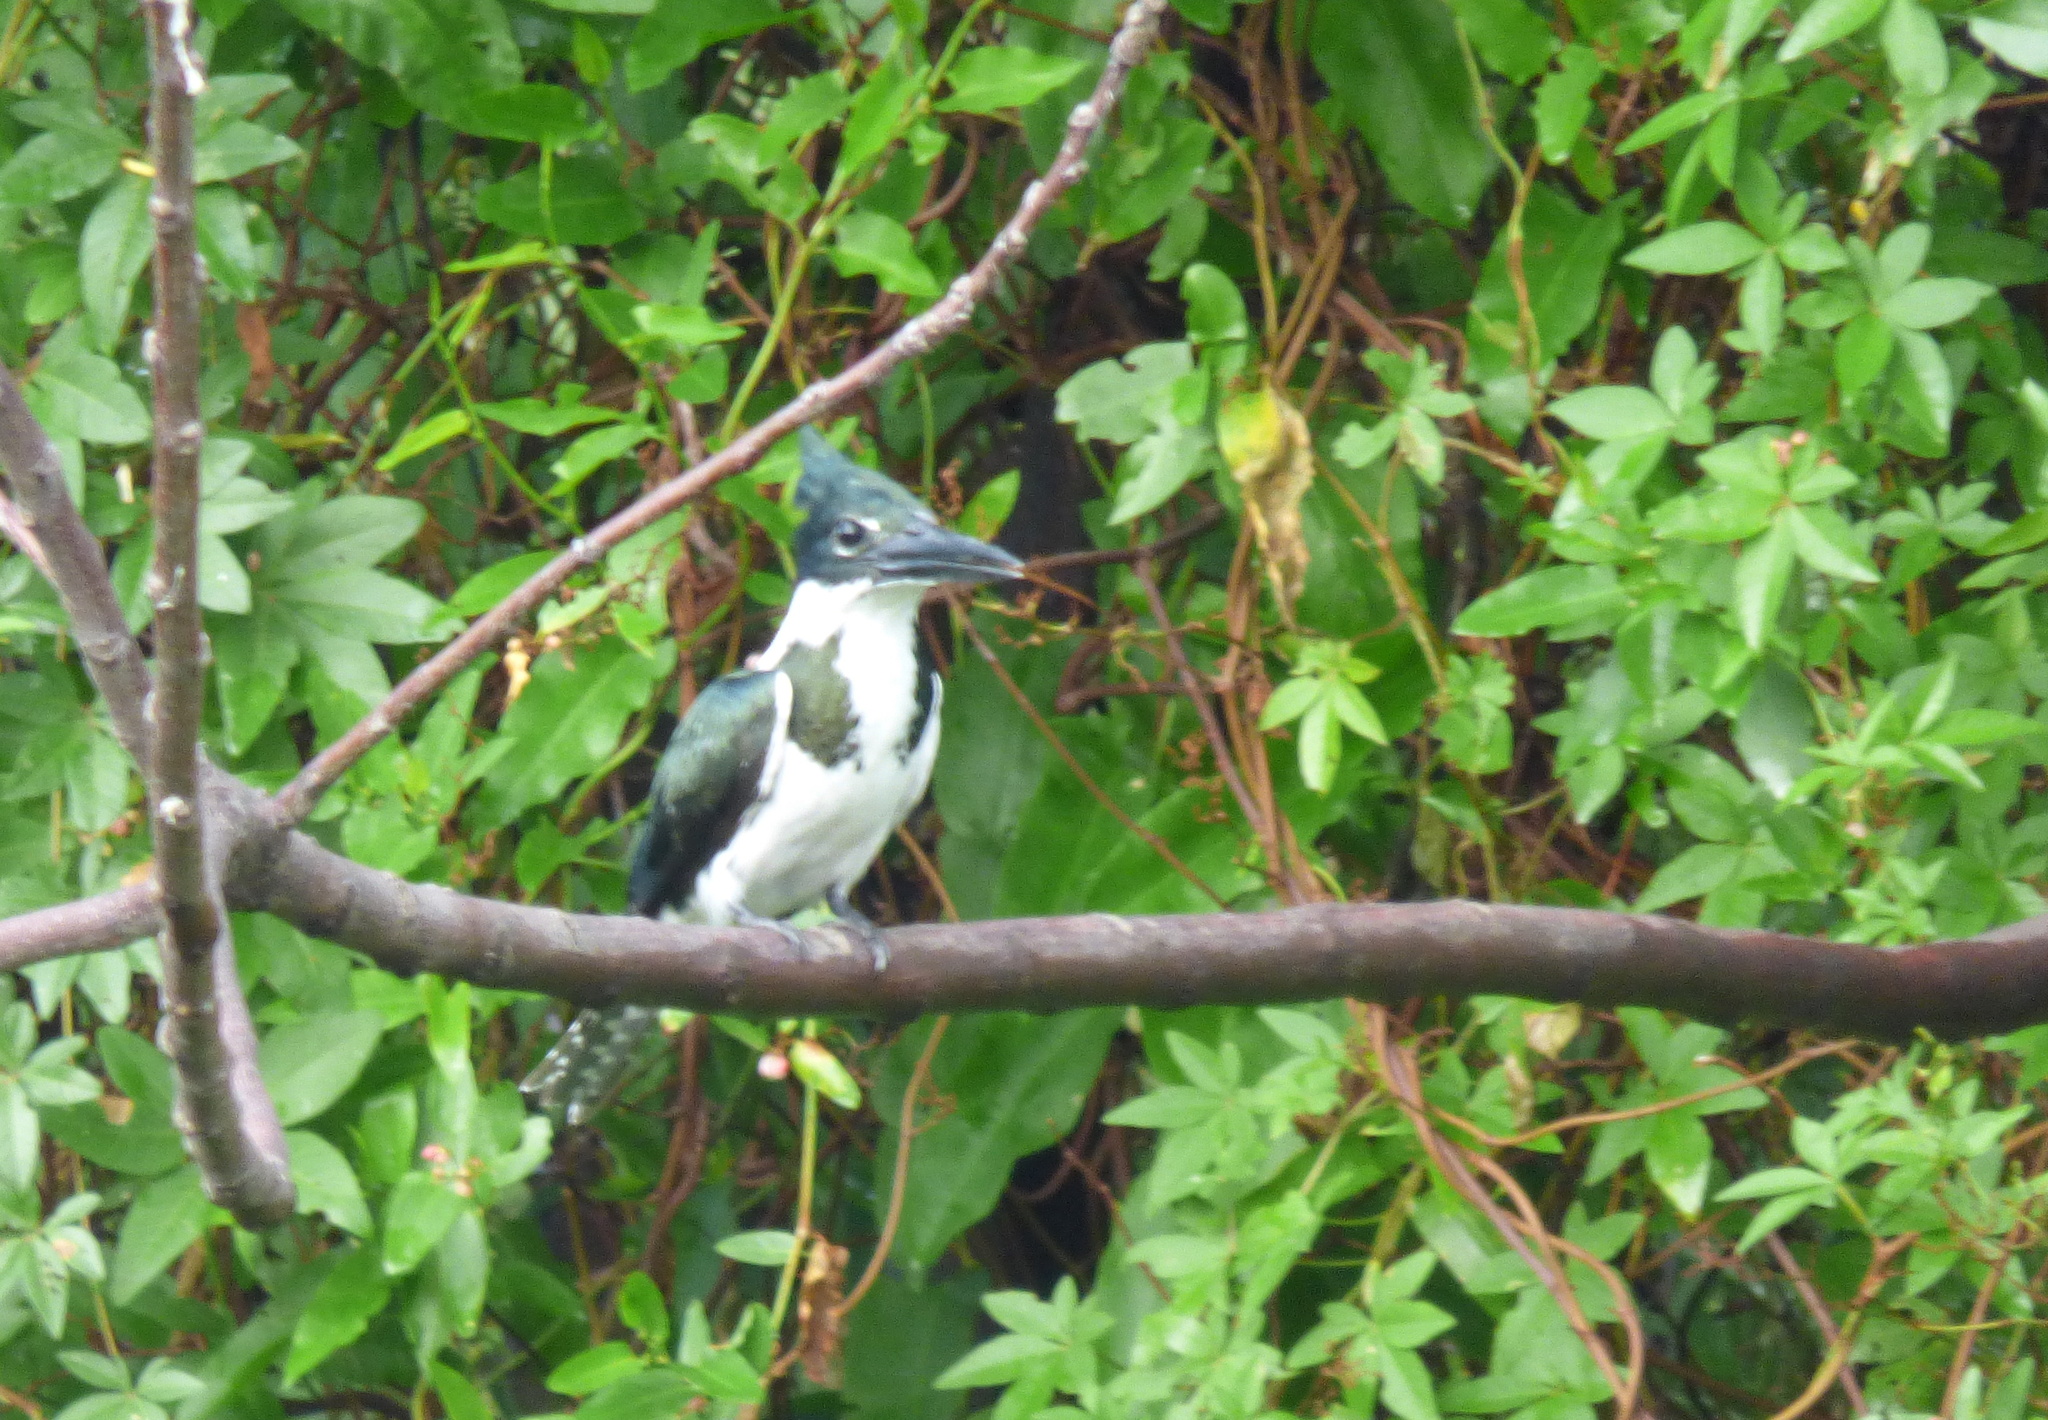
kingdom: Animalia
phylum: Chordata
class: Aves
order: Coraciiformes
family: Alcedinidae
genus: Chloroceryle
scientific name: Chloroceryle amazona
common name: Amazon kingfisher
